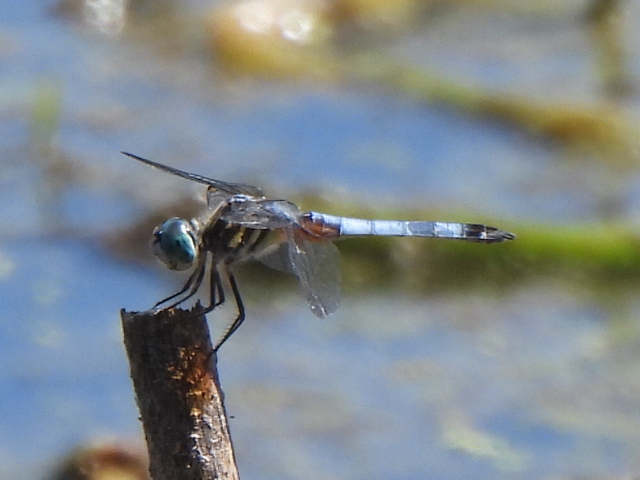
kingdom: Animalia
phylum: Arthropoda
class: Insecta
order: Odonata
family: Libellulidae
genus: Pachydiplax
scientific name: Pachydiplax longipennis
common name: Blue dasher
